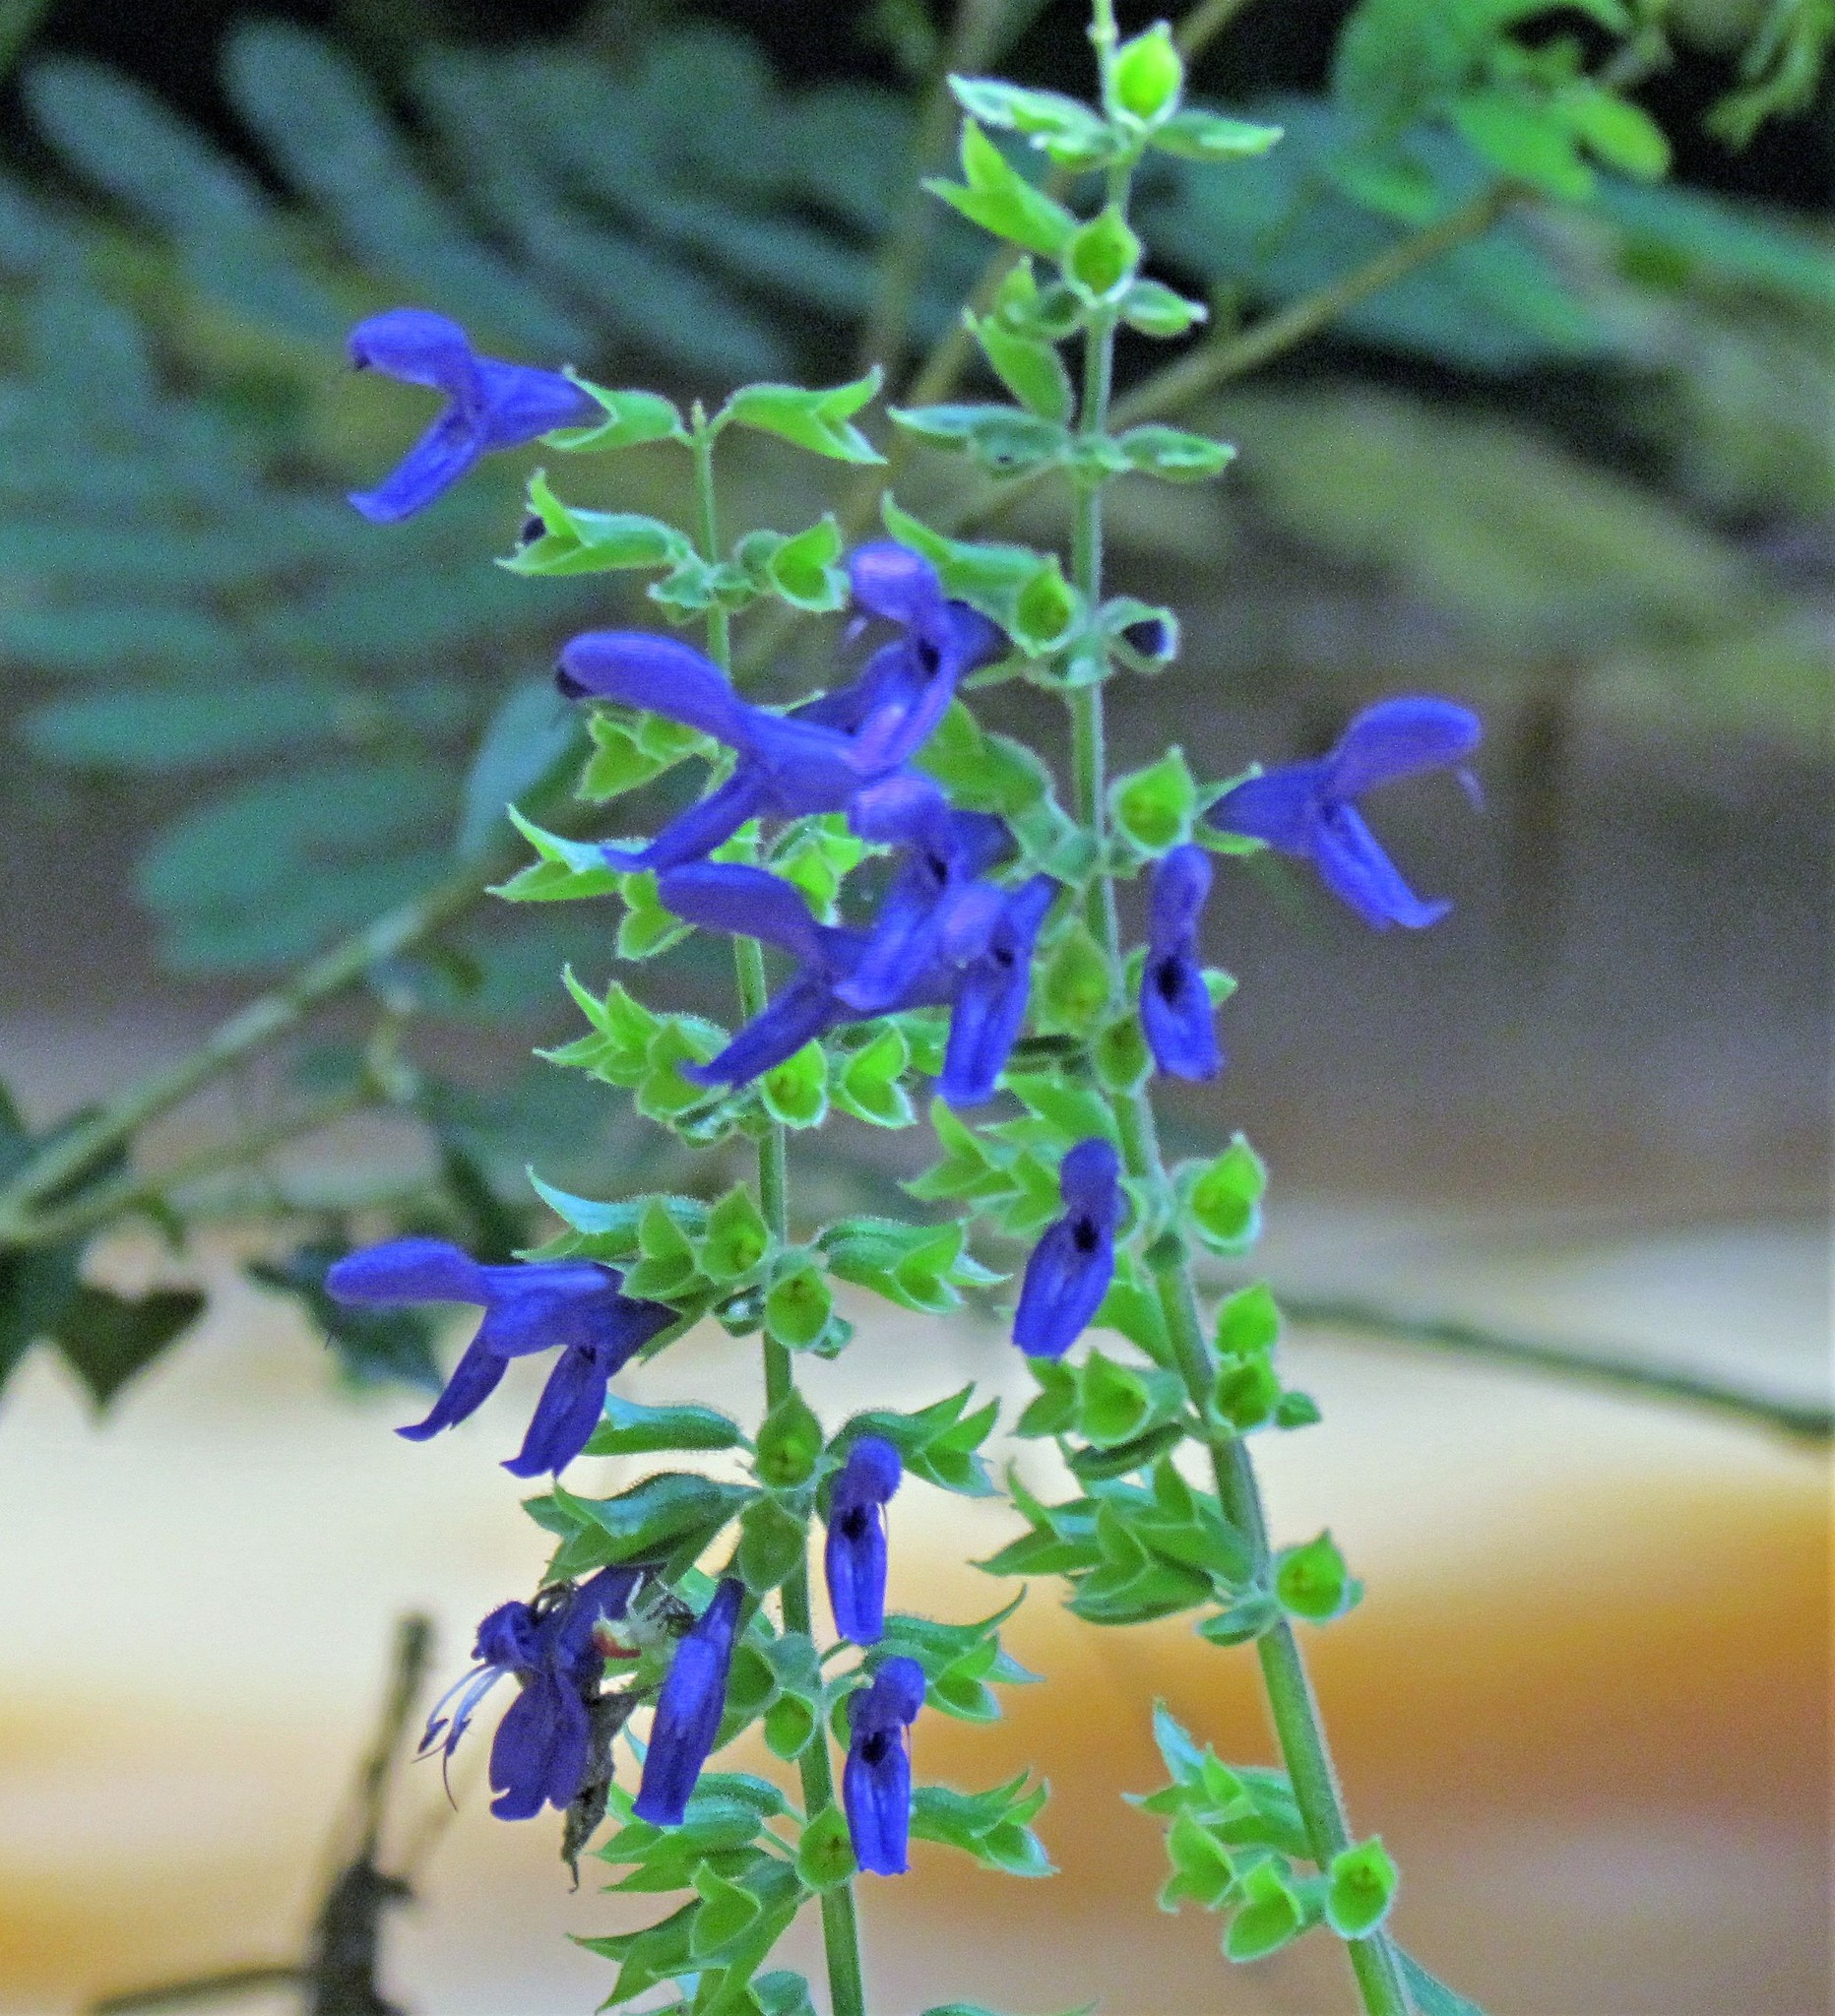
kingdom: Plantae
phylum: Tracheophyta
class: Magnoliopsida
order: Lamiales
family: Lamiaceae
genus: Salvia
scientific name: Salvia guaranitica
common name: Anise-scented sage
